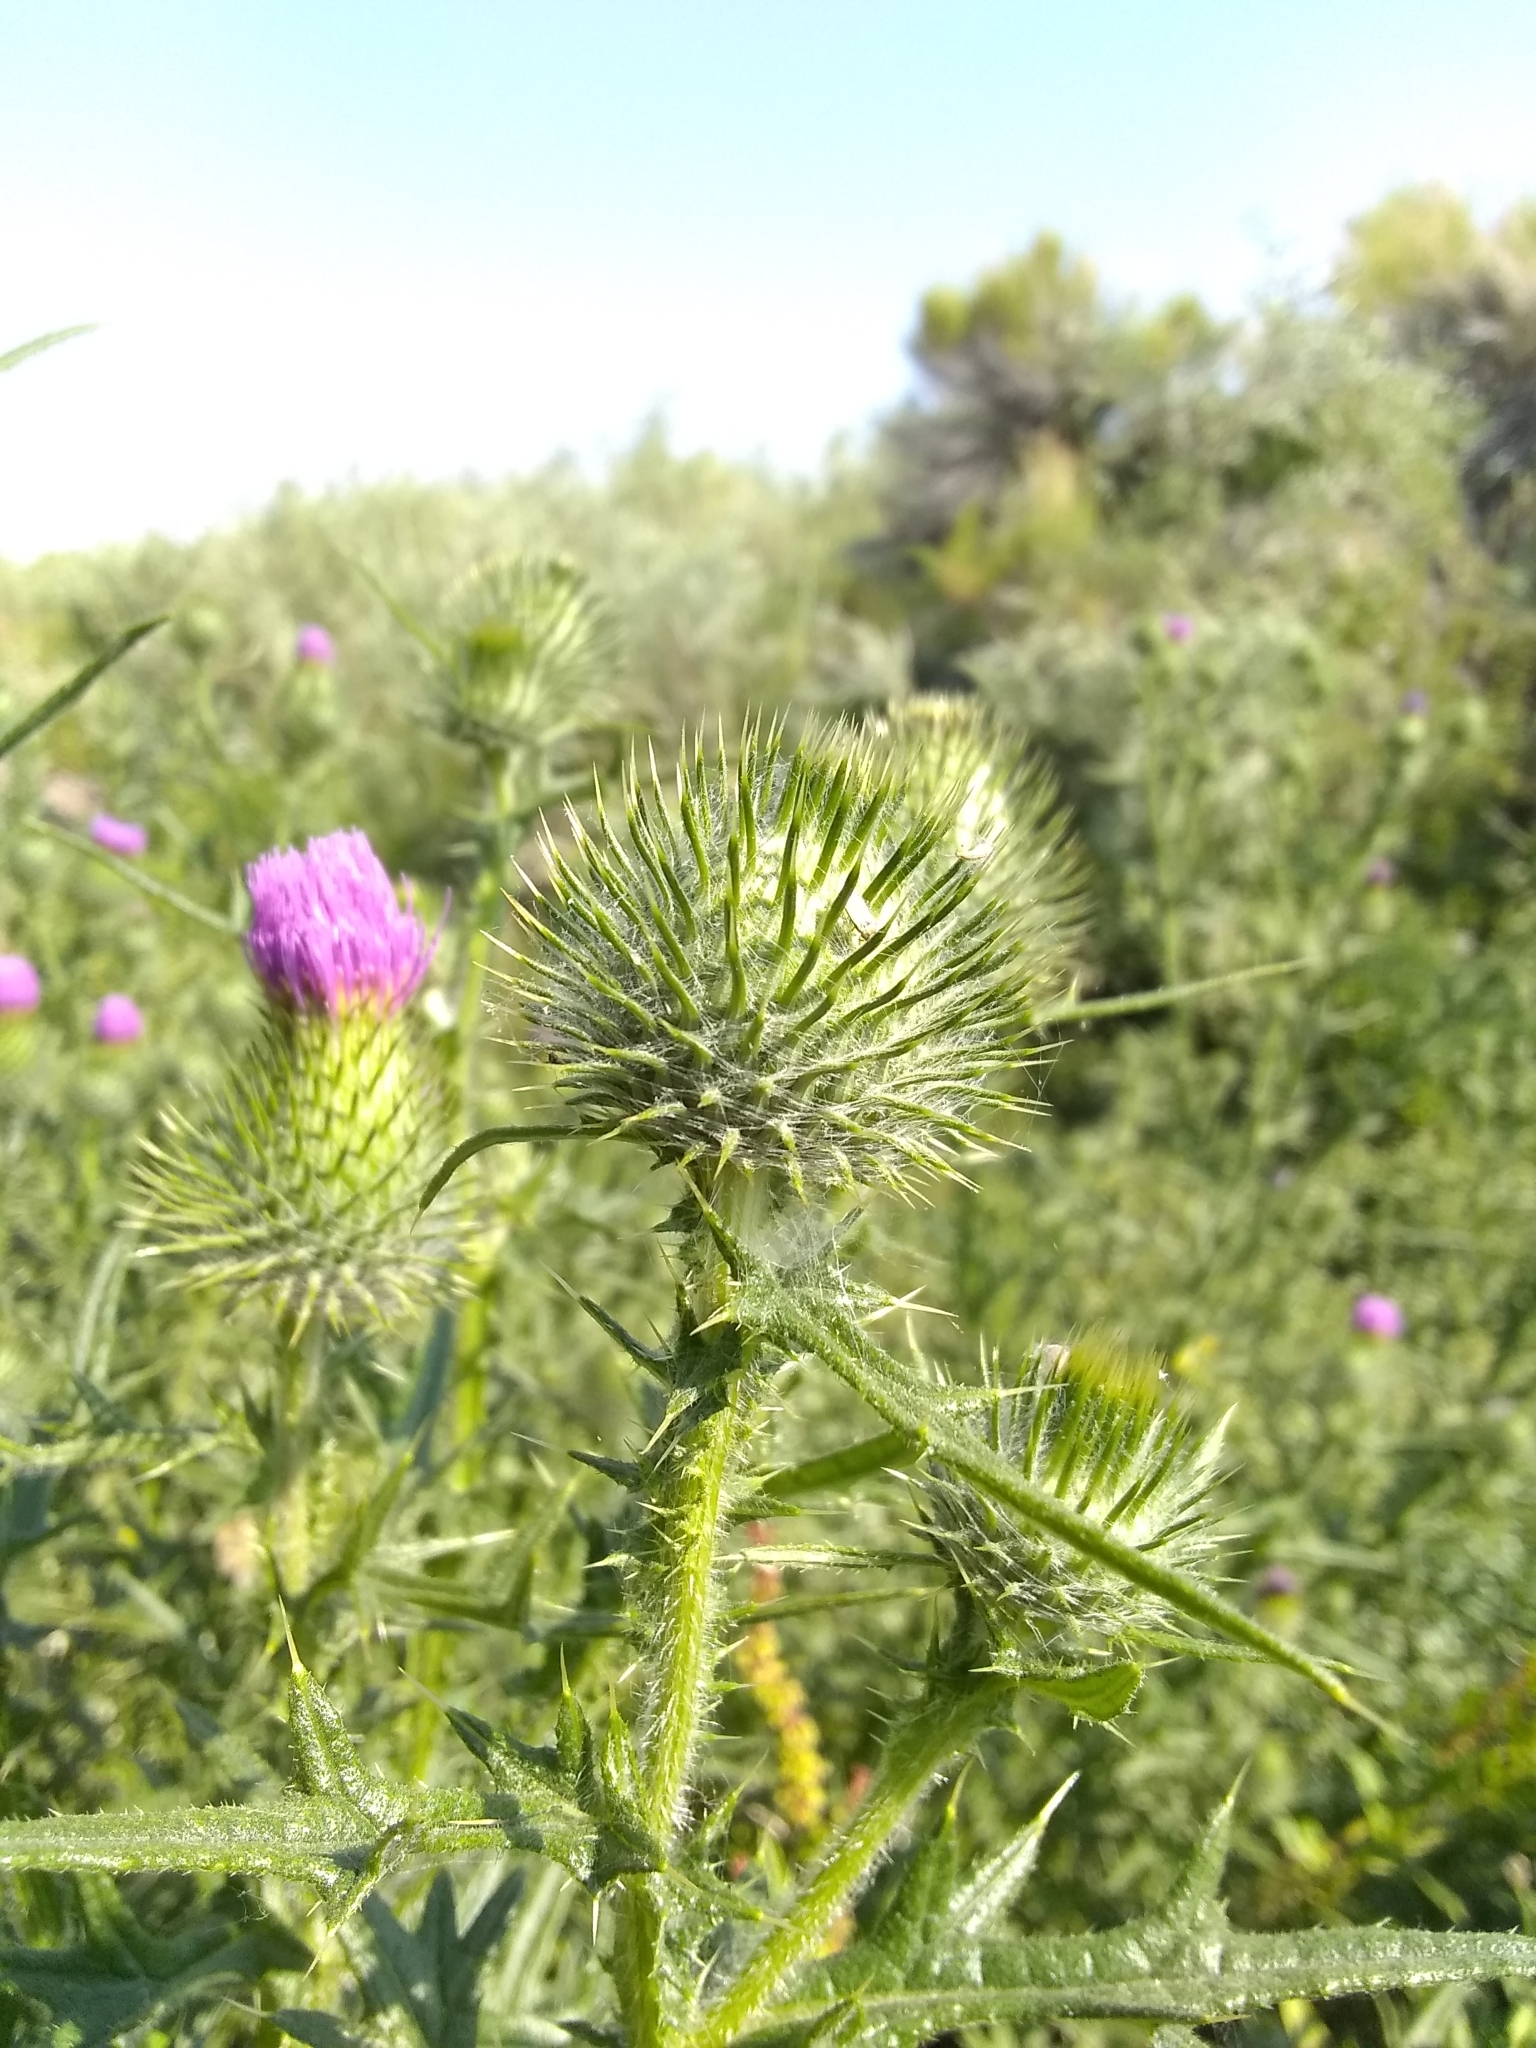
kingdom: Plantae
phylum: Tracheophyta
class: Magnoliopsida
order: Asterales
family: Asteraceae
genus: Cirsium
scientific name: Cirsium vulgare
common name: Bull thistle
